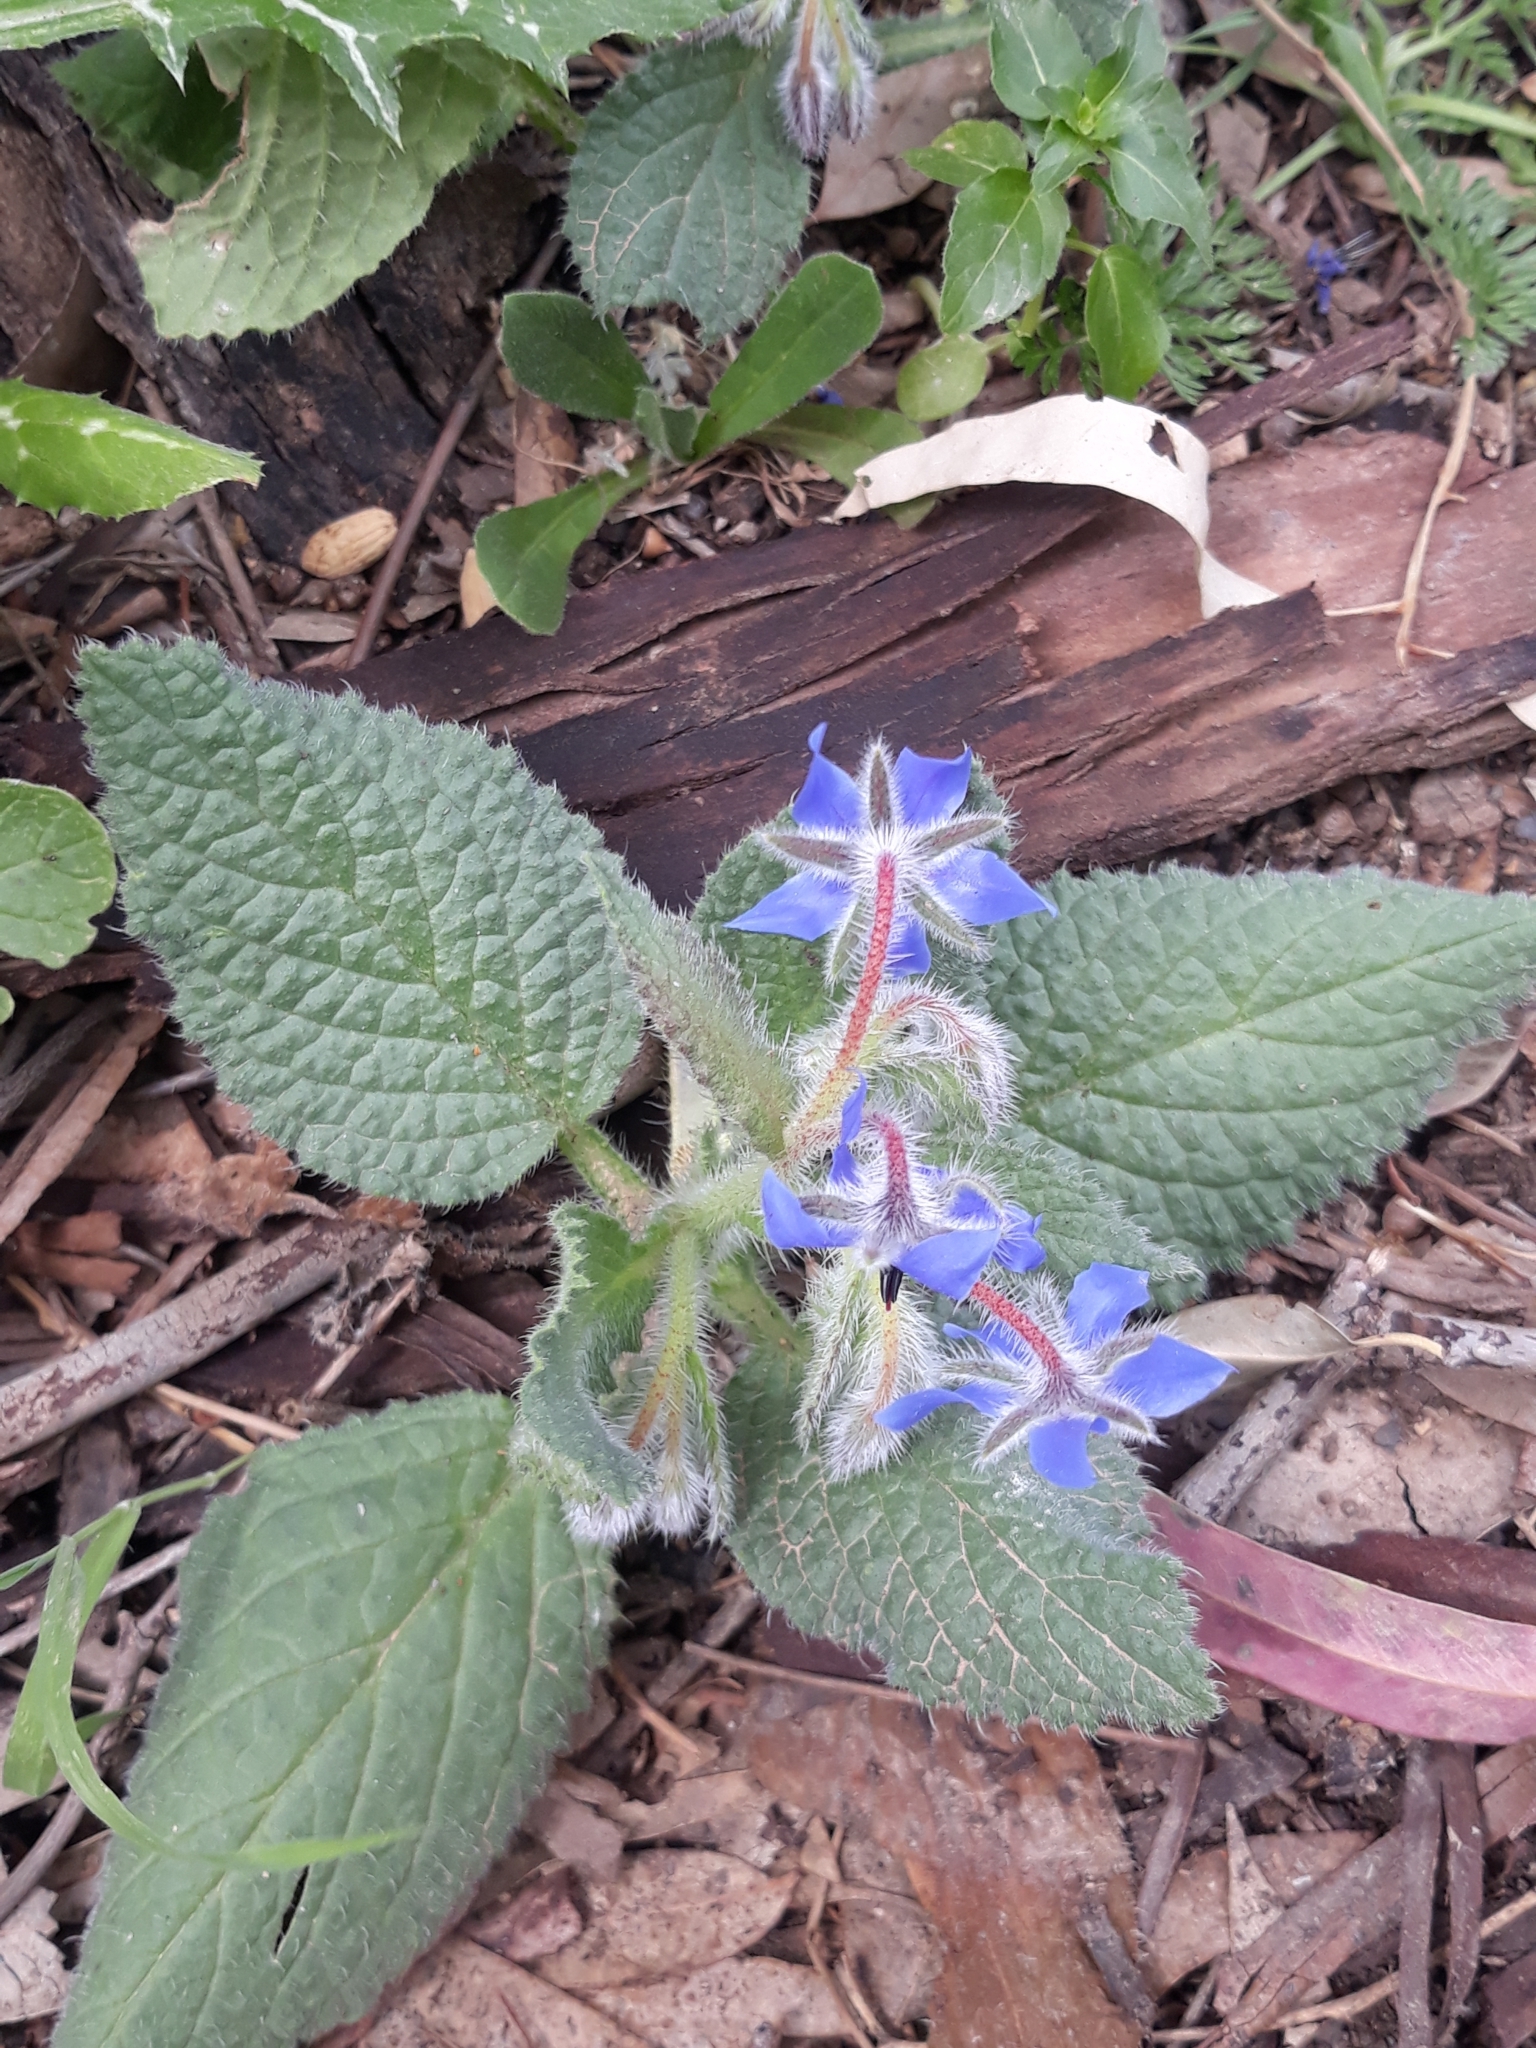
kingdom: Plantae
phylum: Tracheophyta
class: Magnoliopsida
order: Boraginales
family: Boraginaceae
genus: Borago
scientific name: Borago officinalis
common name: Borage
